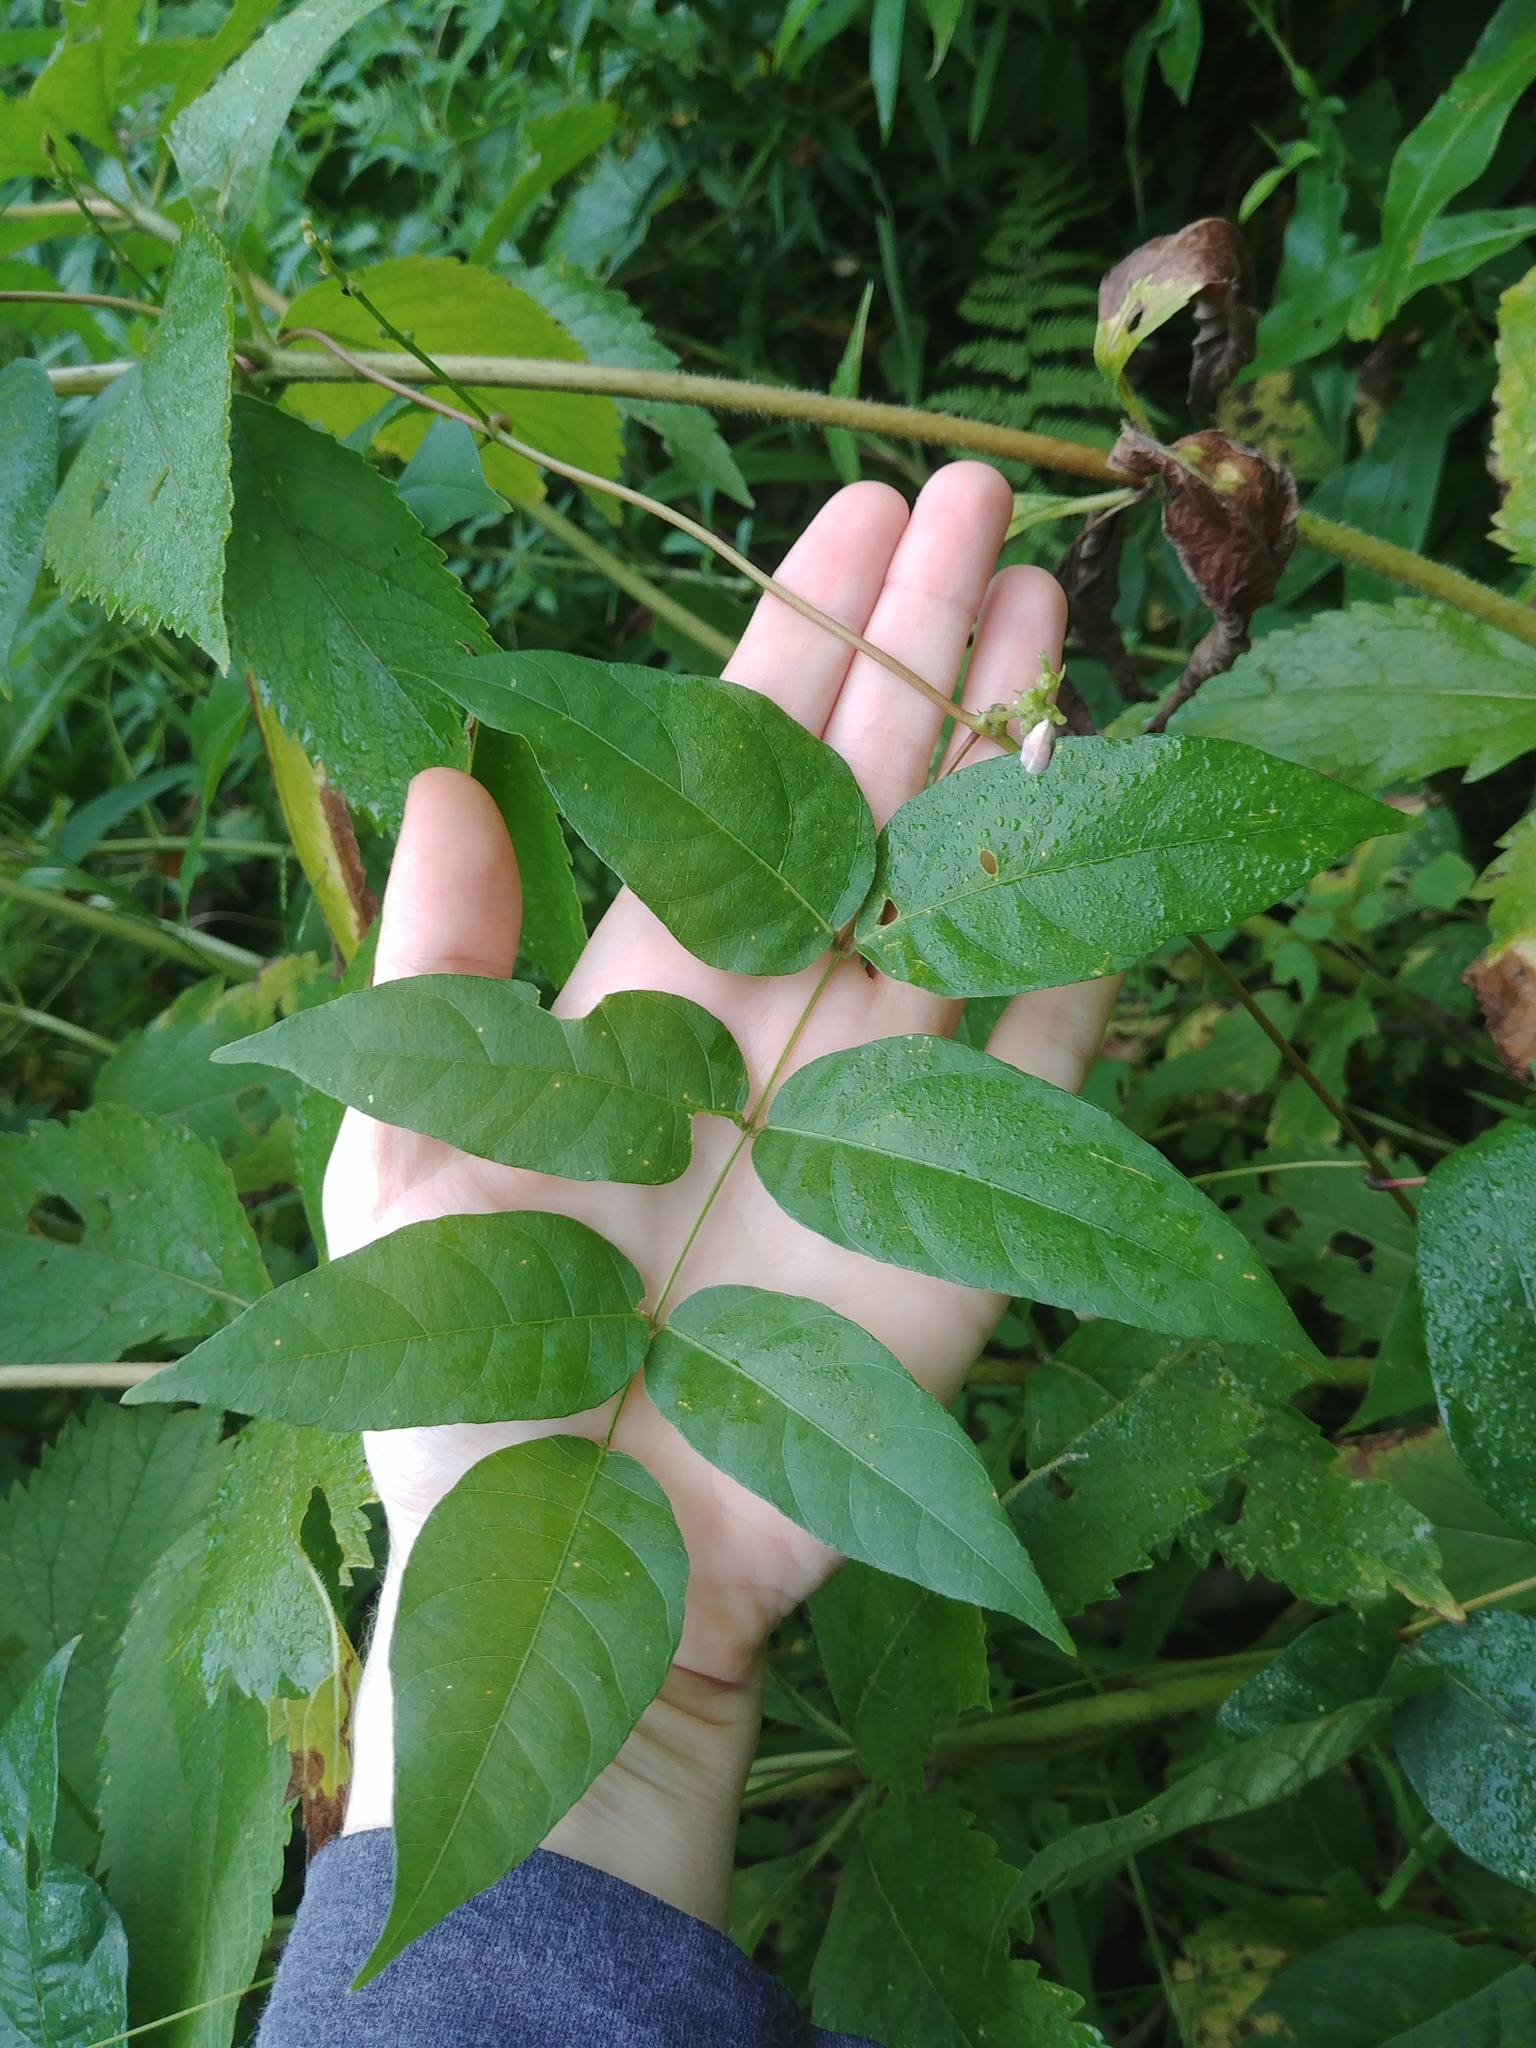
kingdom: Plantae
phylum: Tracheophyta
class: Magnoliopsida
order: Fabales
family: Fabaceae
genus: Apios
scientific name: Apios americana
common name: American potato-bean
